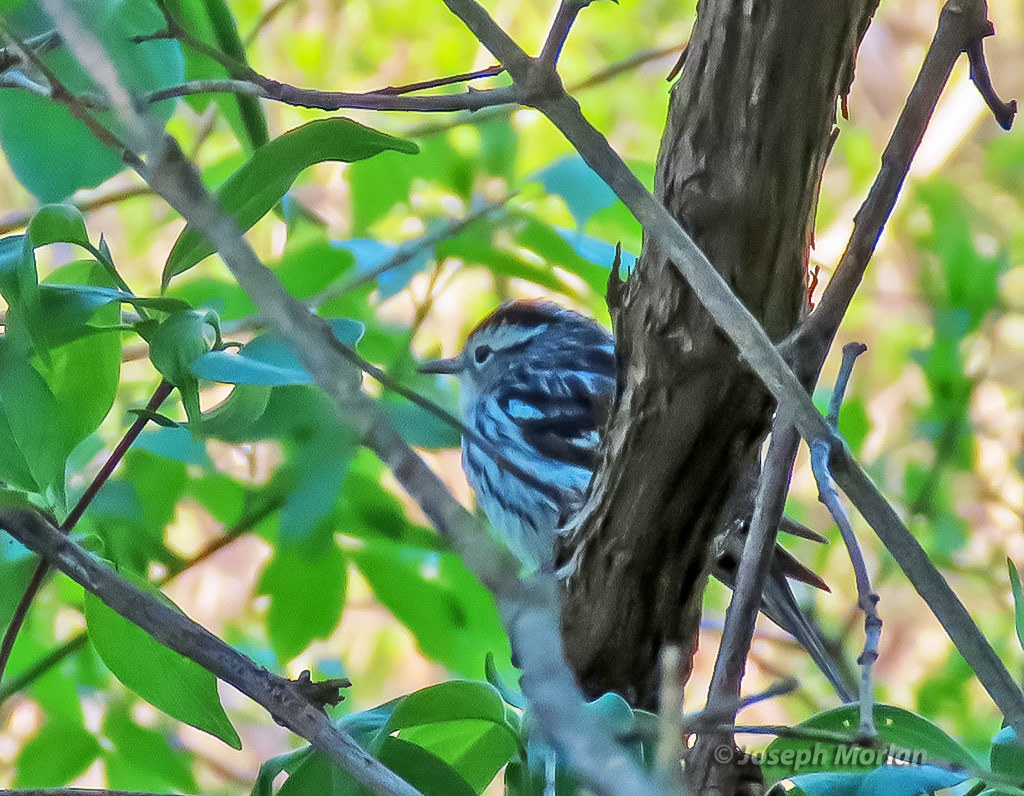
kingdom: Animalia
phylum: Chordata
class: Aves
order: Passeriformes
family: Parulidae
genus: Mniotilta
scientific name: Mniotilta varia
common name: Black-and-white warbler
